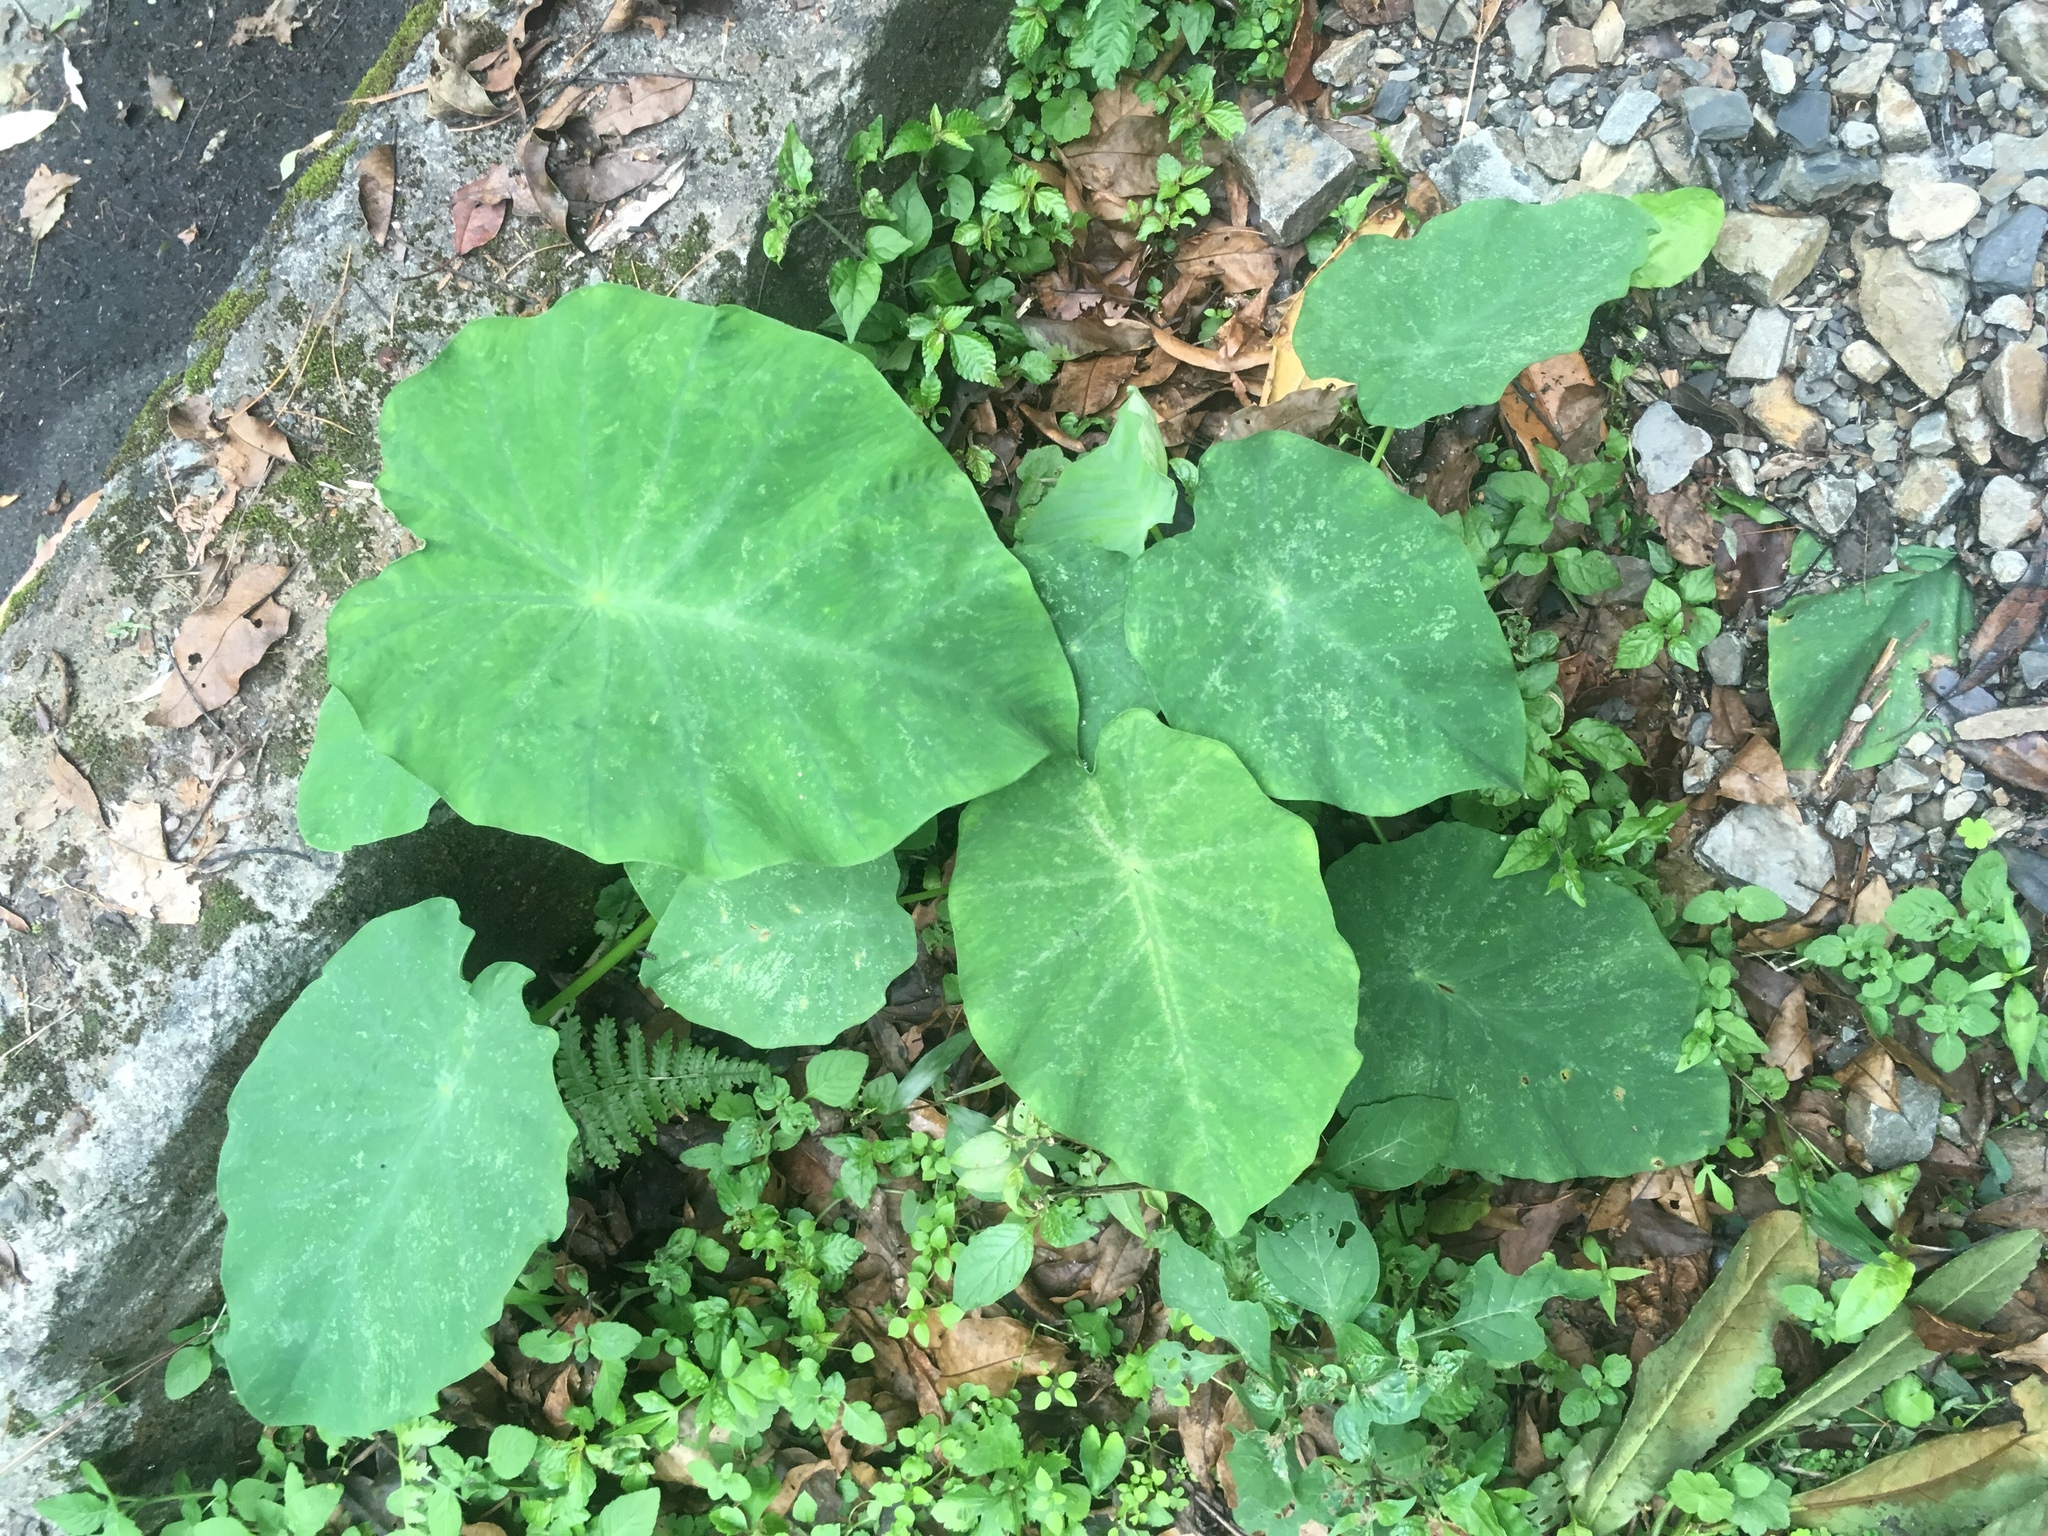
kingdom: Plantae
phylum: Tracheophyta
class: Liliopsida
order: Alismatales
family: Araceae
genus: Colocasia
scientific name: Colocasia esculenta
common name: Taro
